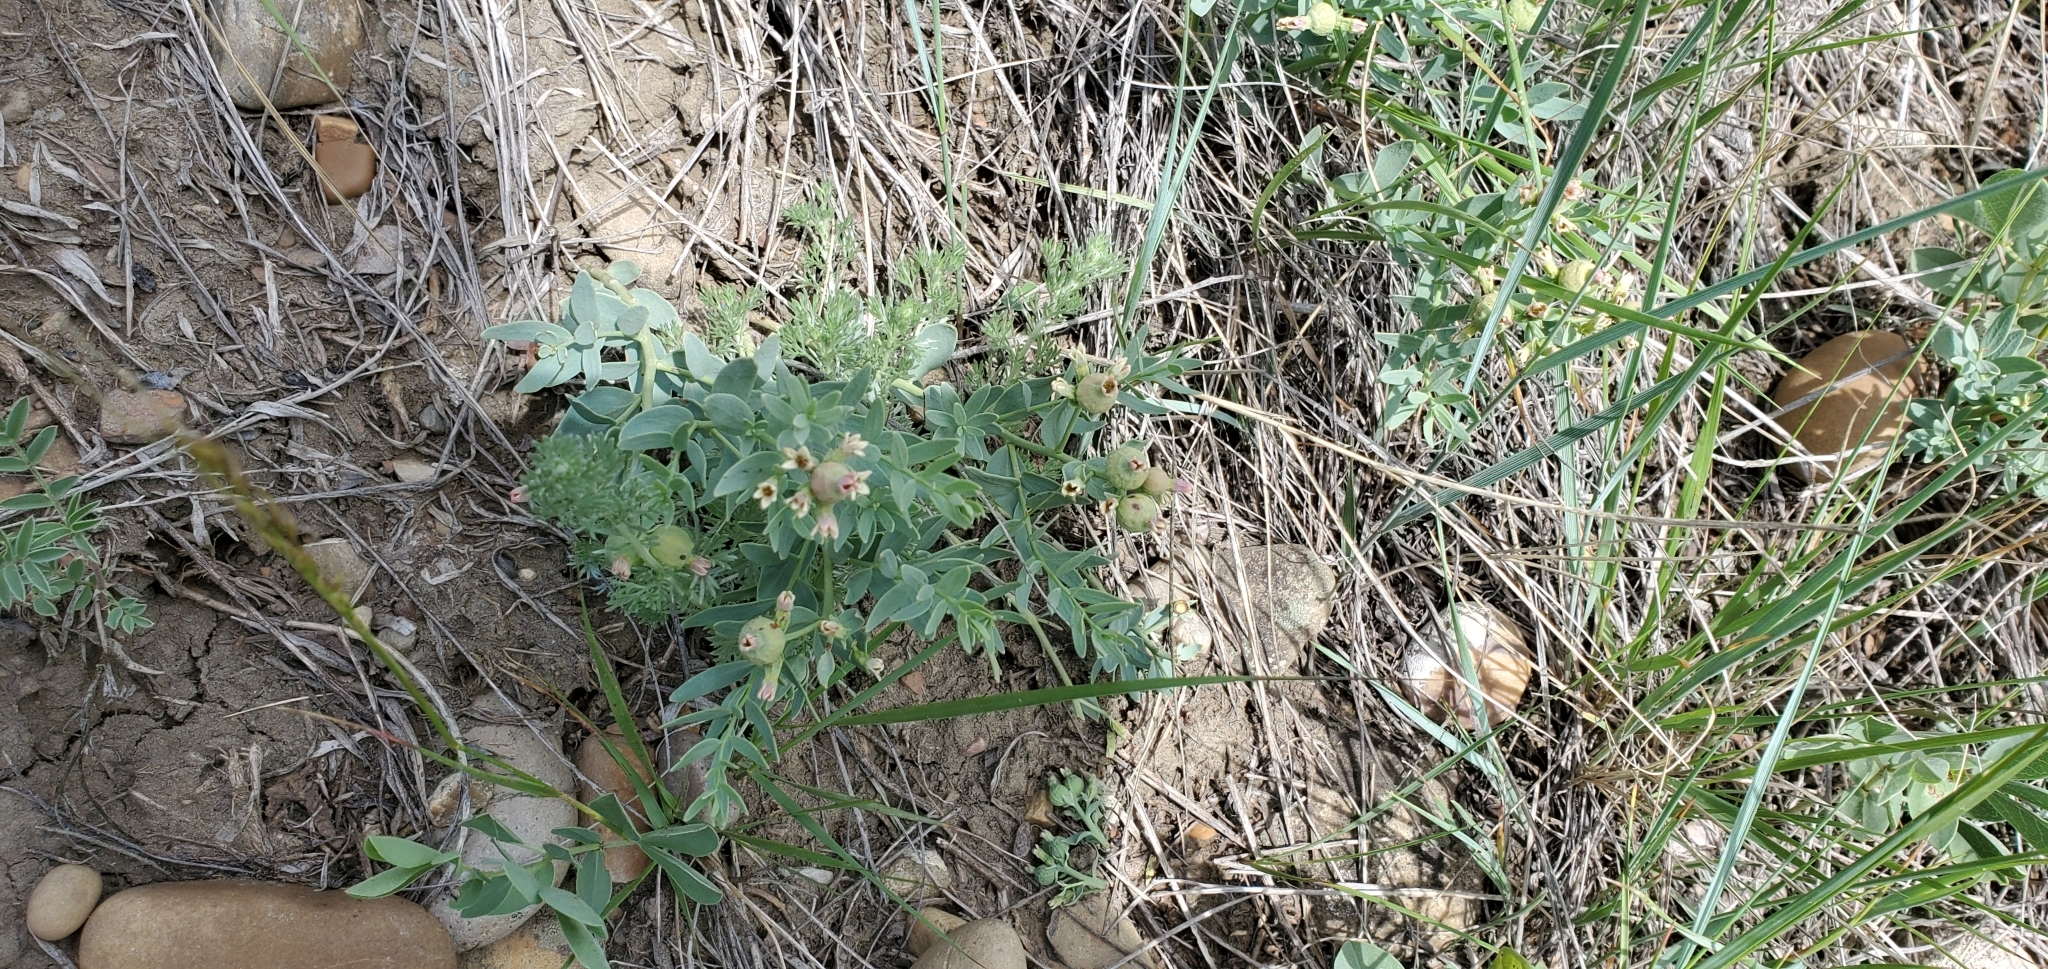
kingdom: Plantae
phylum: Tracheophyta
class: Magnoliopsida
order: Santalales
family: Comandraceae
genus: Comandra
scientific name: Comandra umbellata
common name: Bastard toadflax
